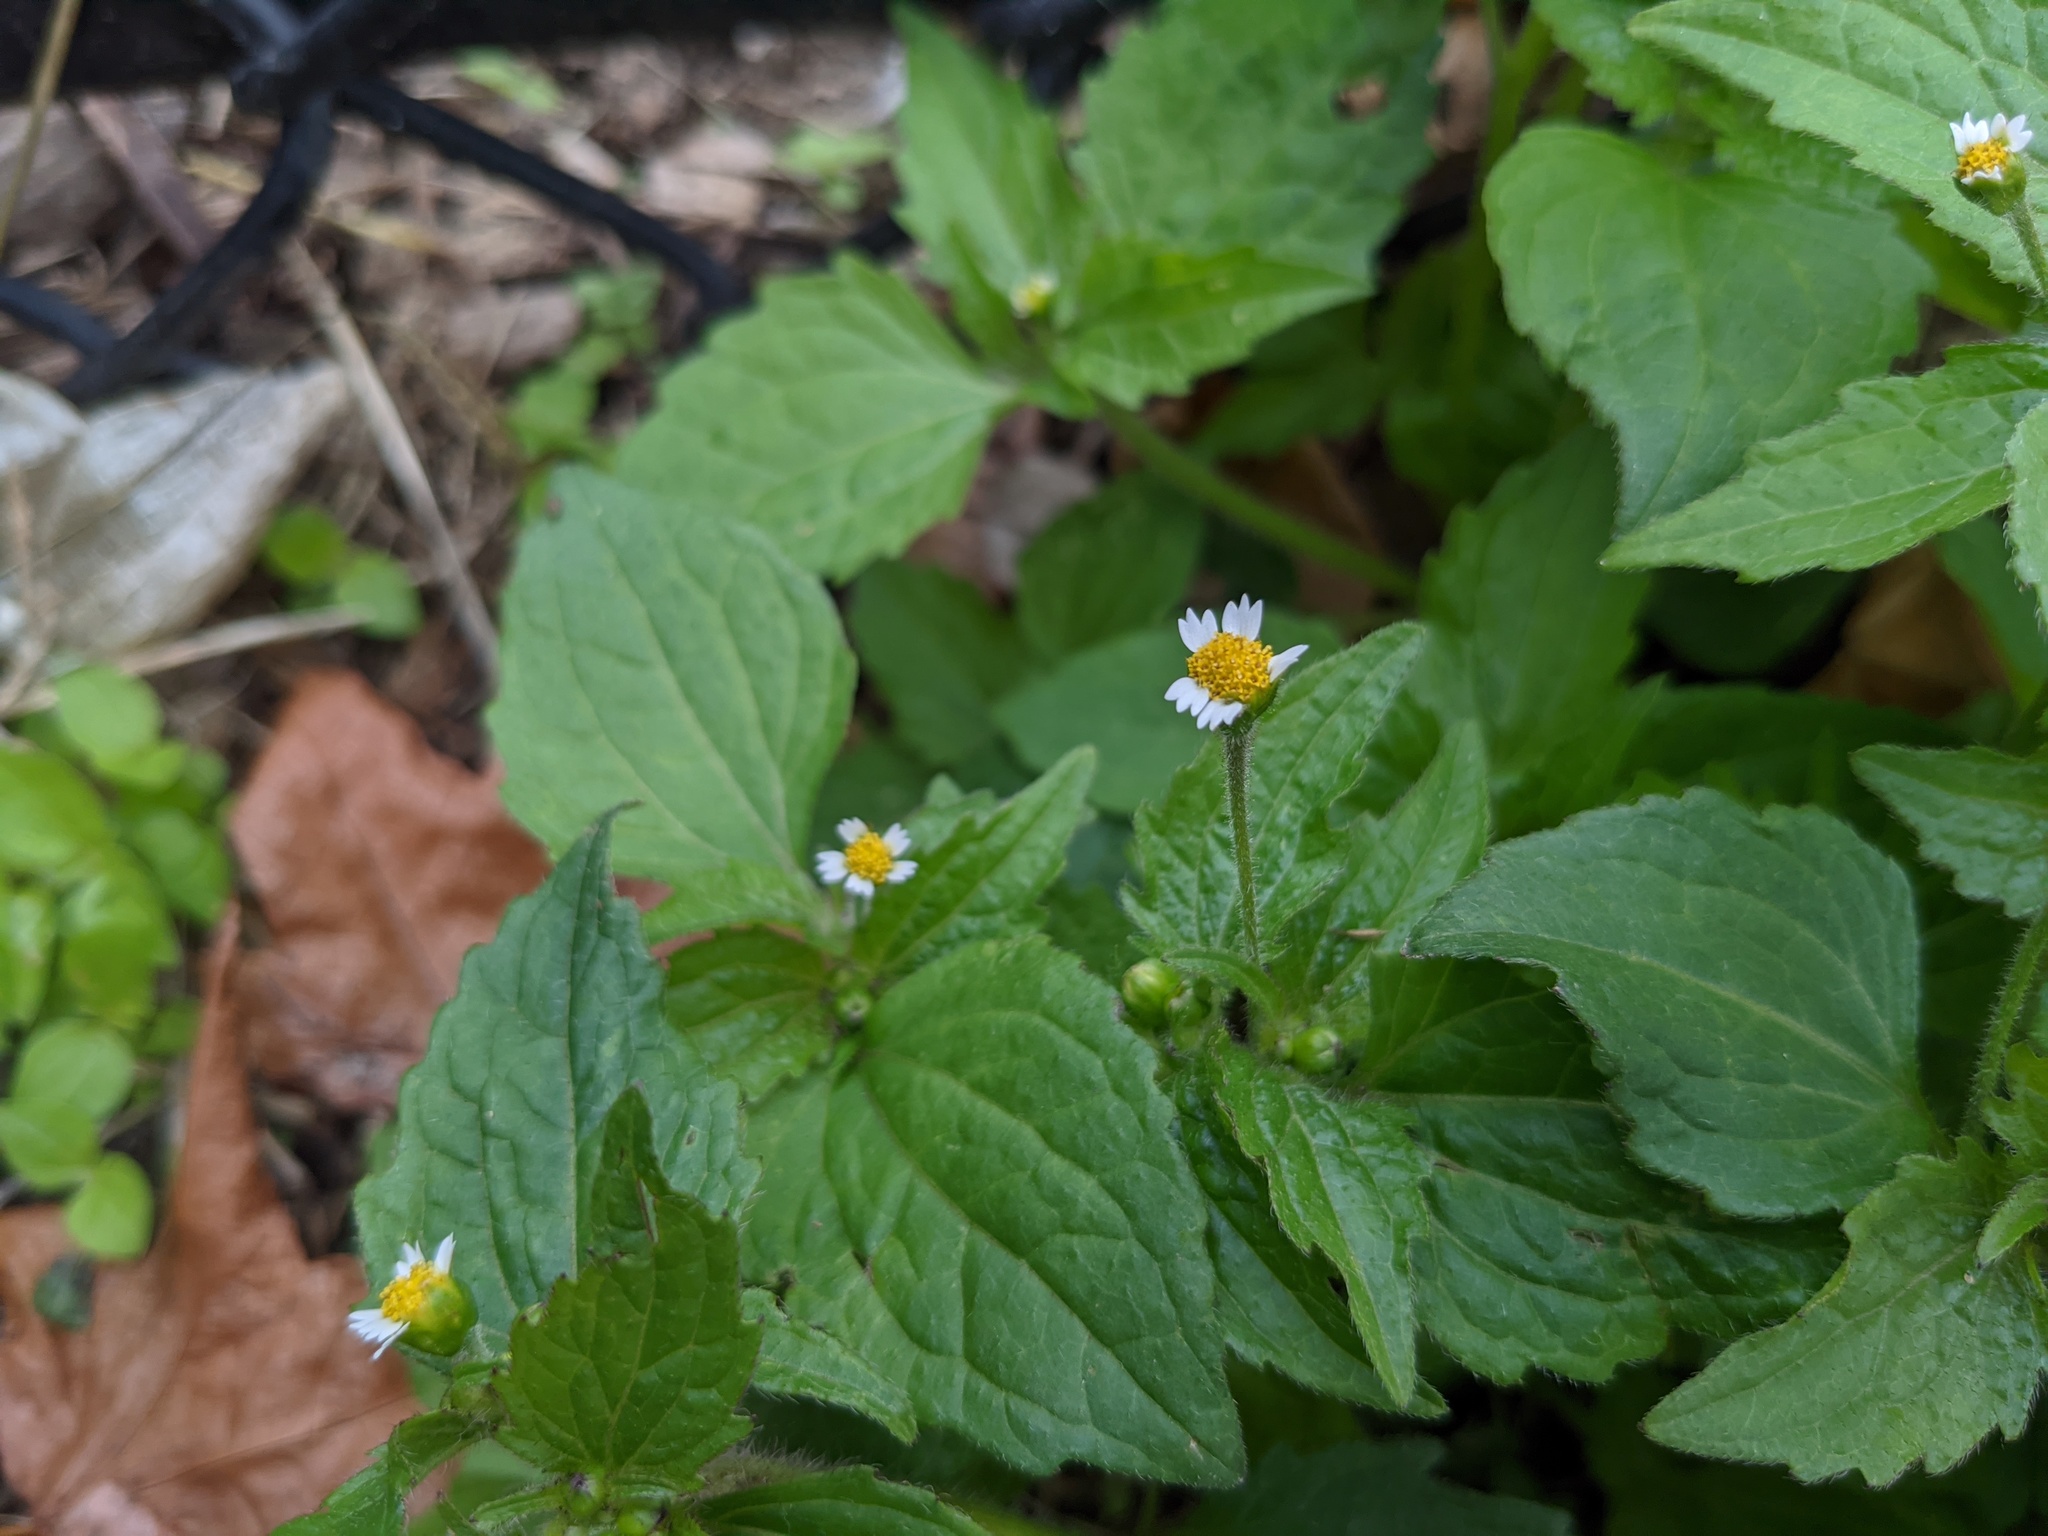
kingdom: Plantae
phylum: Tracheophyta
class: Magnoliopsida
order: Asterales
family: Asteraceae
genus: Galinsoga
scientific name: Galinsoga quadriradiata
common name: Shaggy soldier
